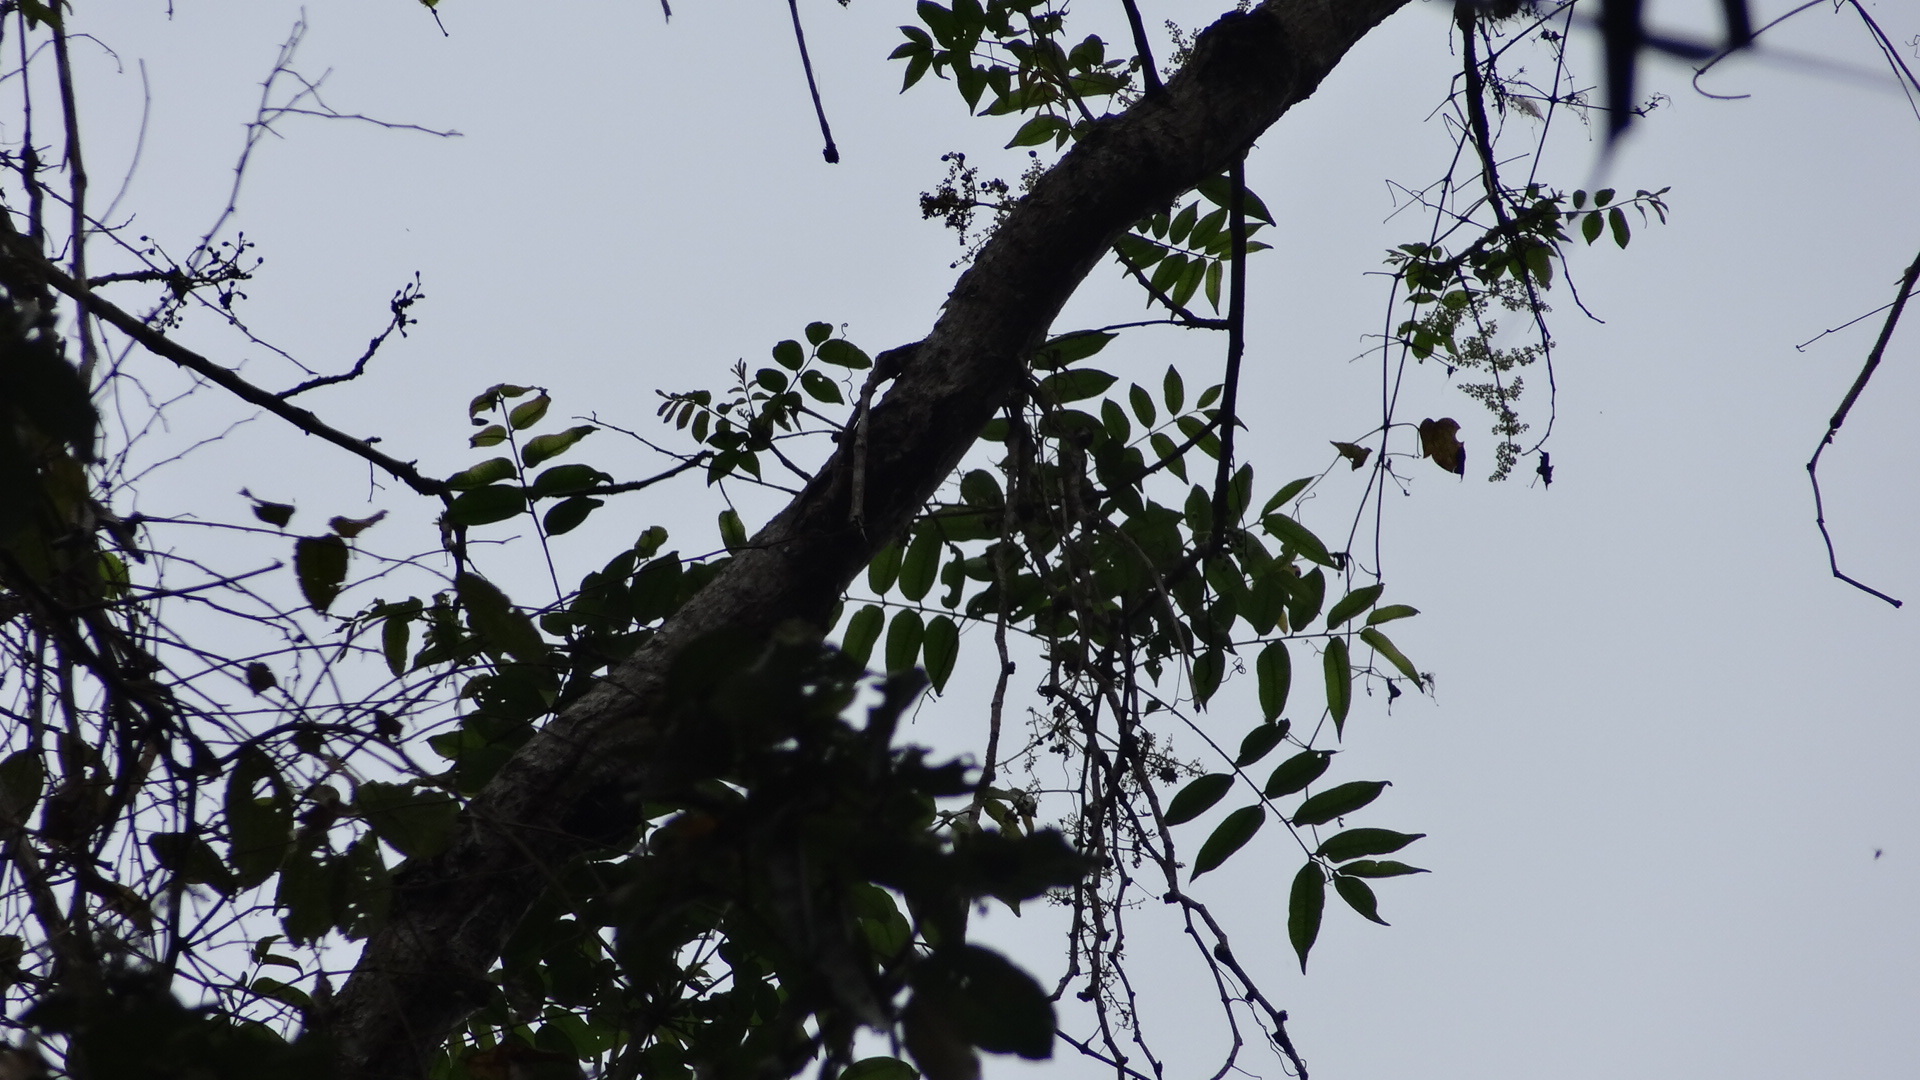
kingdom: Plantae
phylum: Tracheophyta
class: Magnoliopsida
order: Sapindales
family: Anacardiaceae
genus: Spondias
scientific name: Spondias mombin
